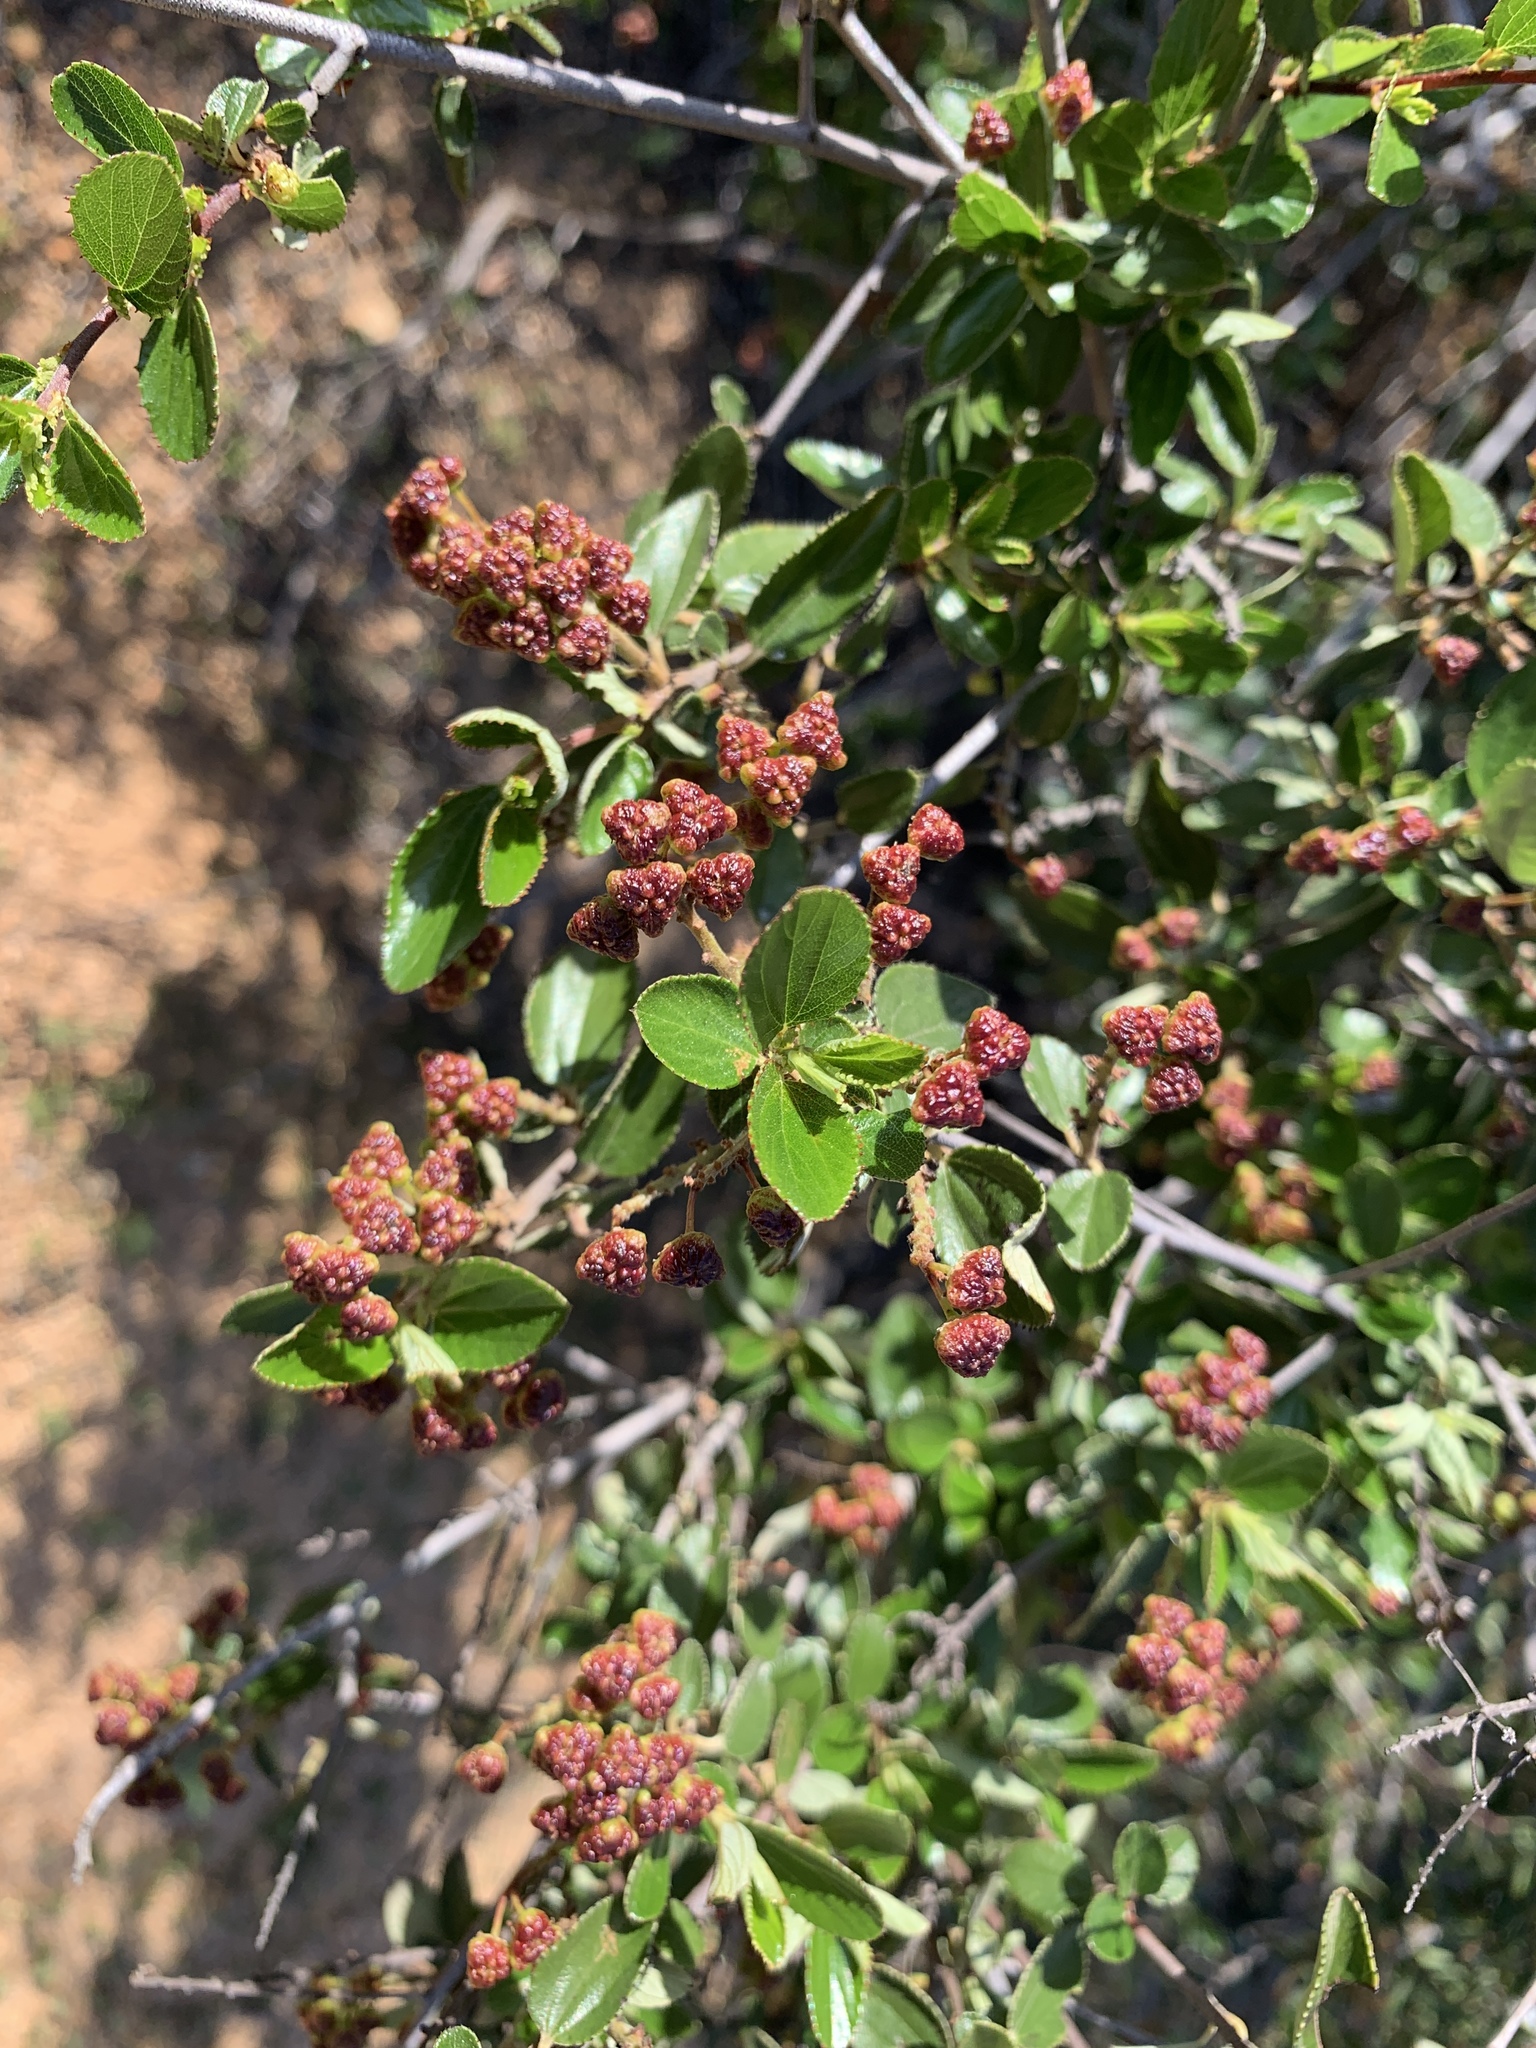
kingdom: Plantae
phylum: Tracheophyta
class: Magnoliopsida
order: Rosales
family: Rhamnaceae
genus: Ceanothus
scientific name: Ceanothus tomentosus
